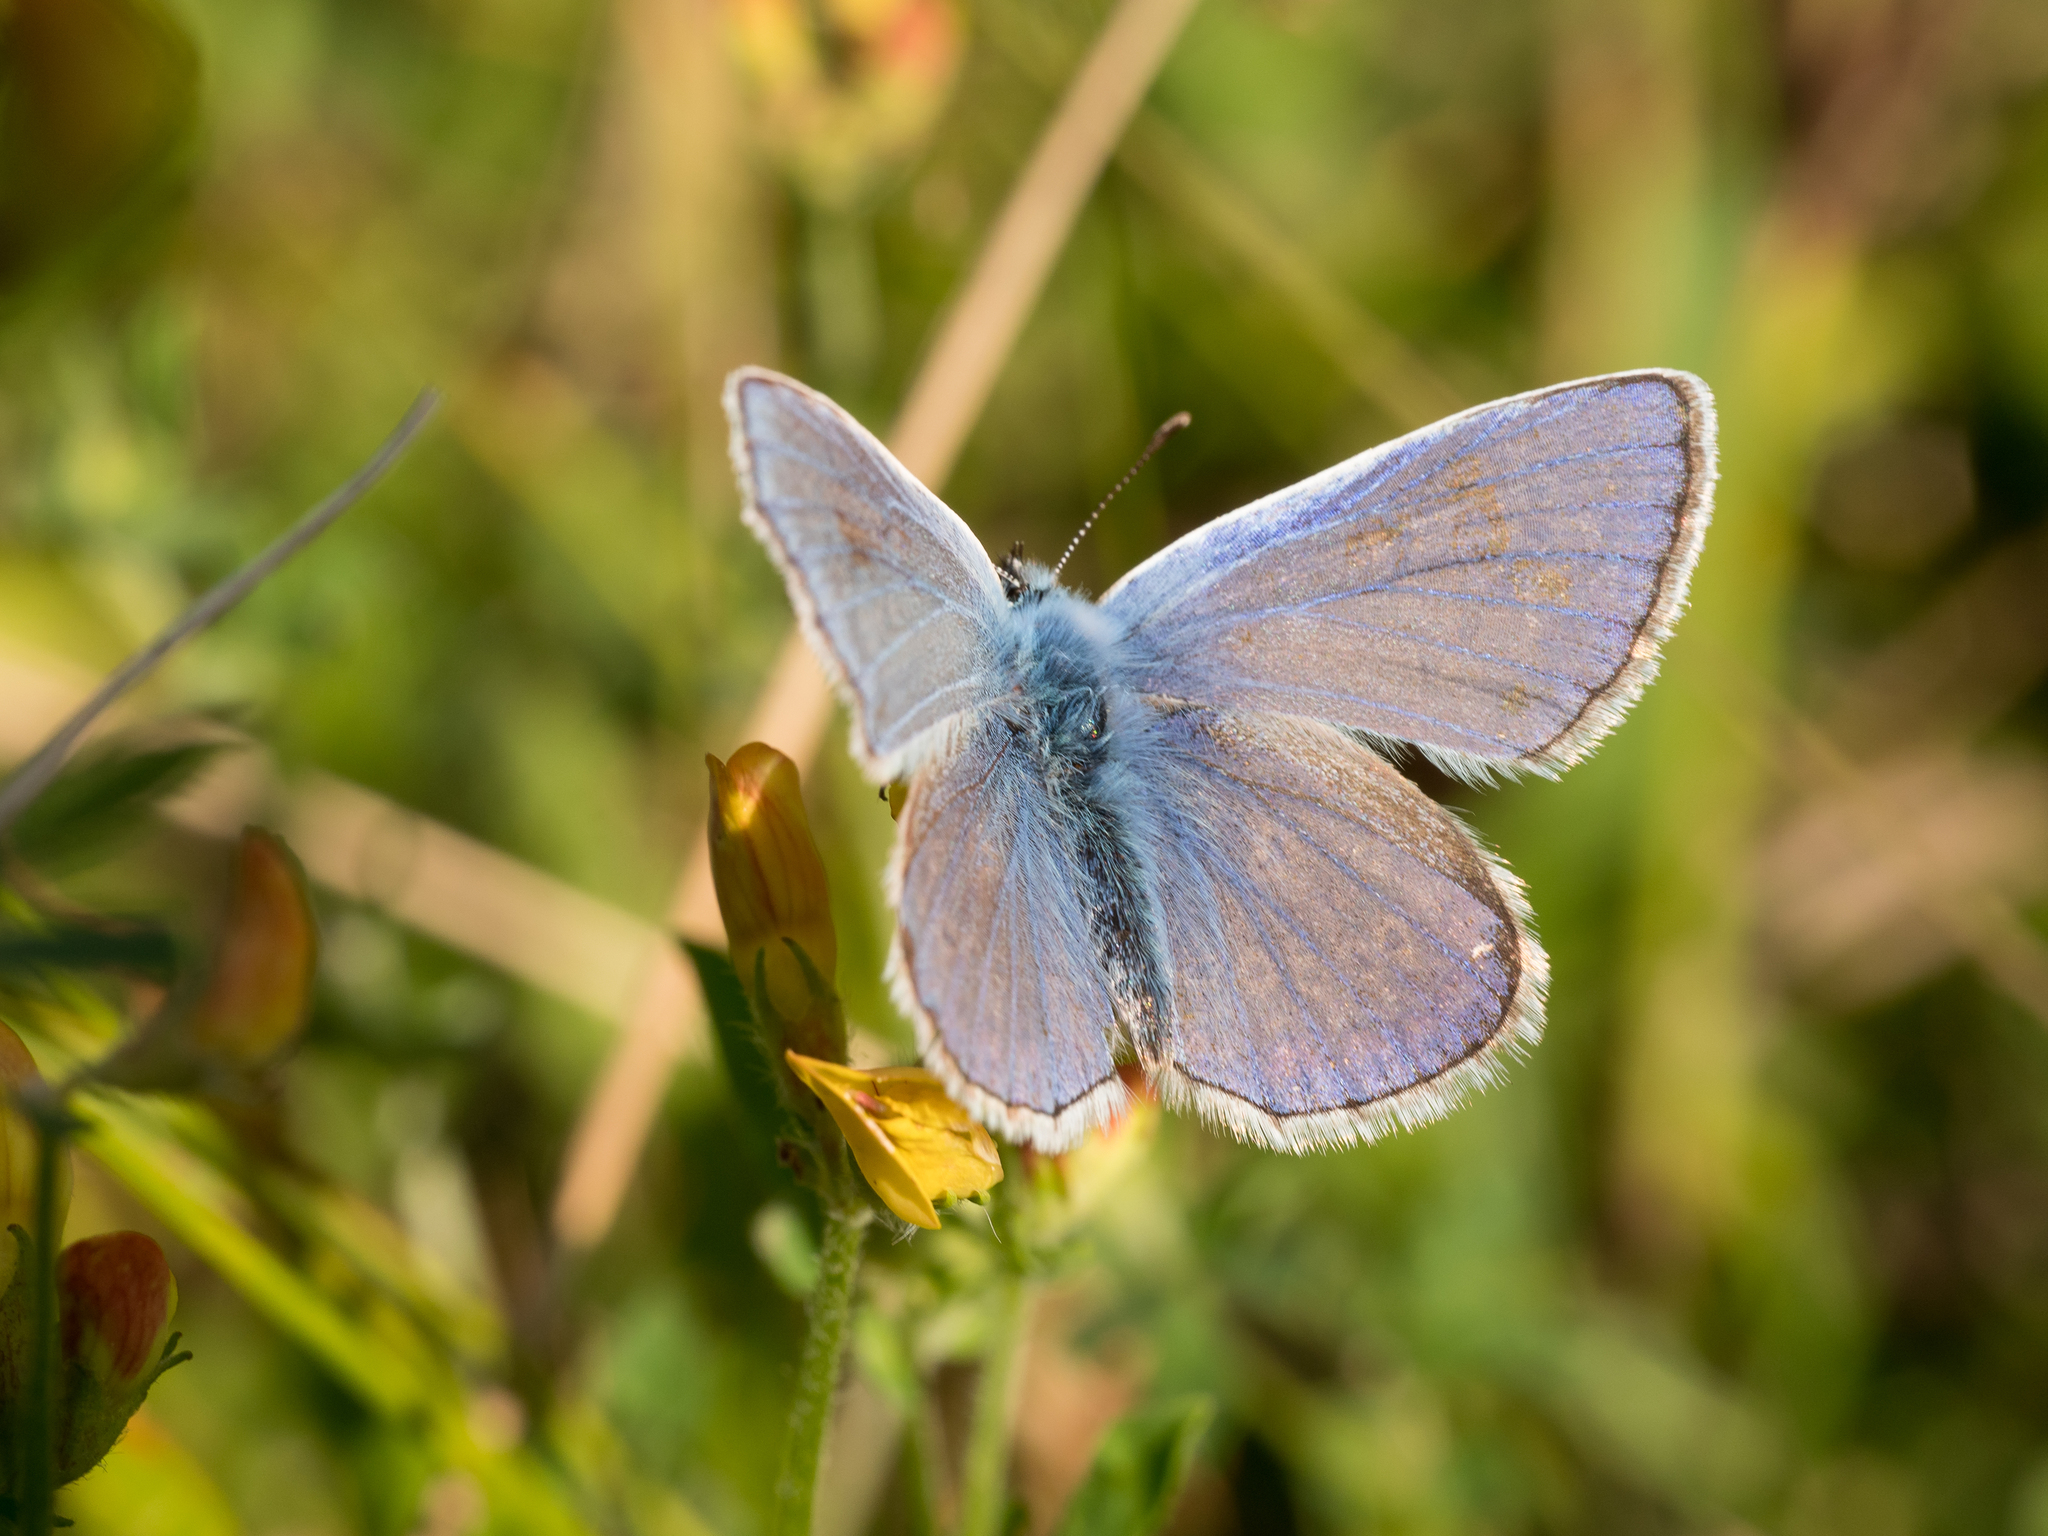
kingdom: Animalia
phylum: Arthropoda
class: Insecta
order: Lepidoptera
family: Lycaenidae
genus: Polyommatus
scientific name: Polyommatus icarus
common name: Common blue
